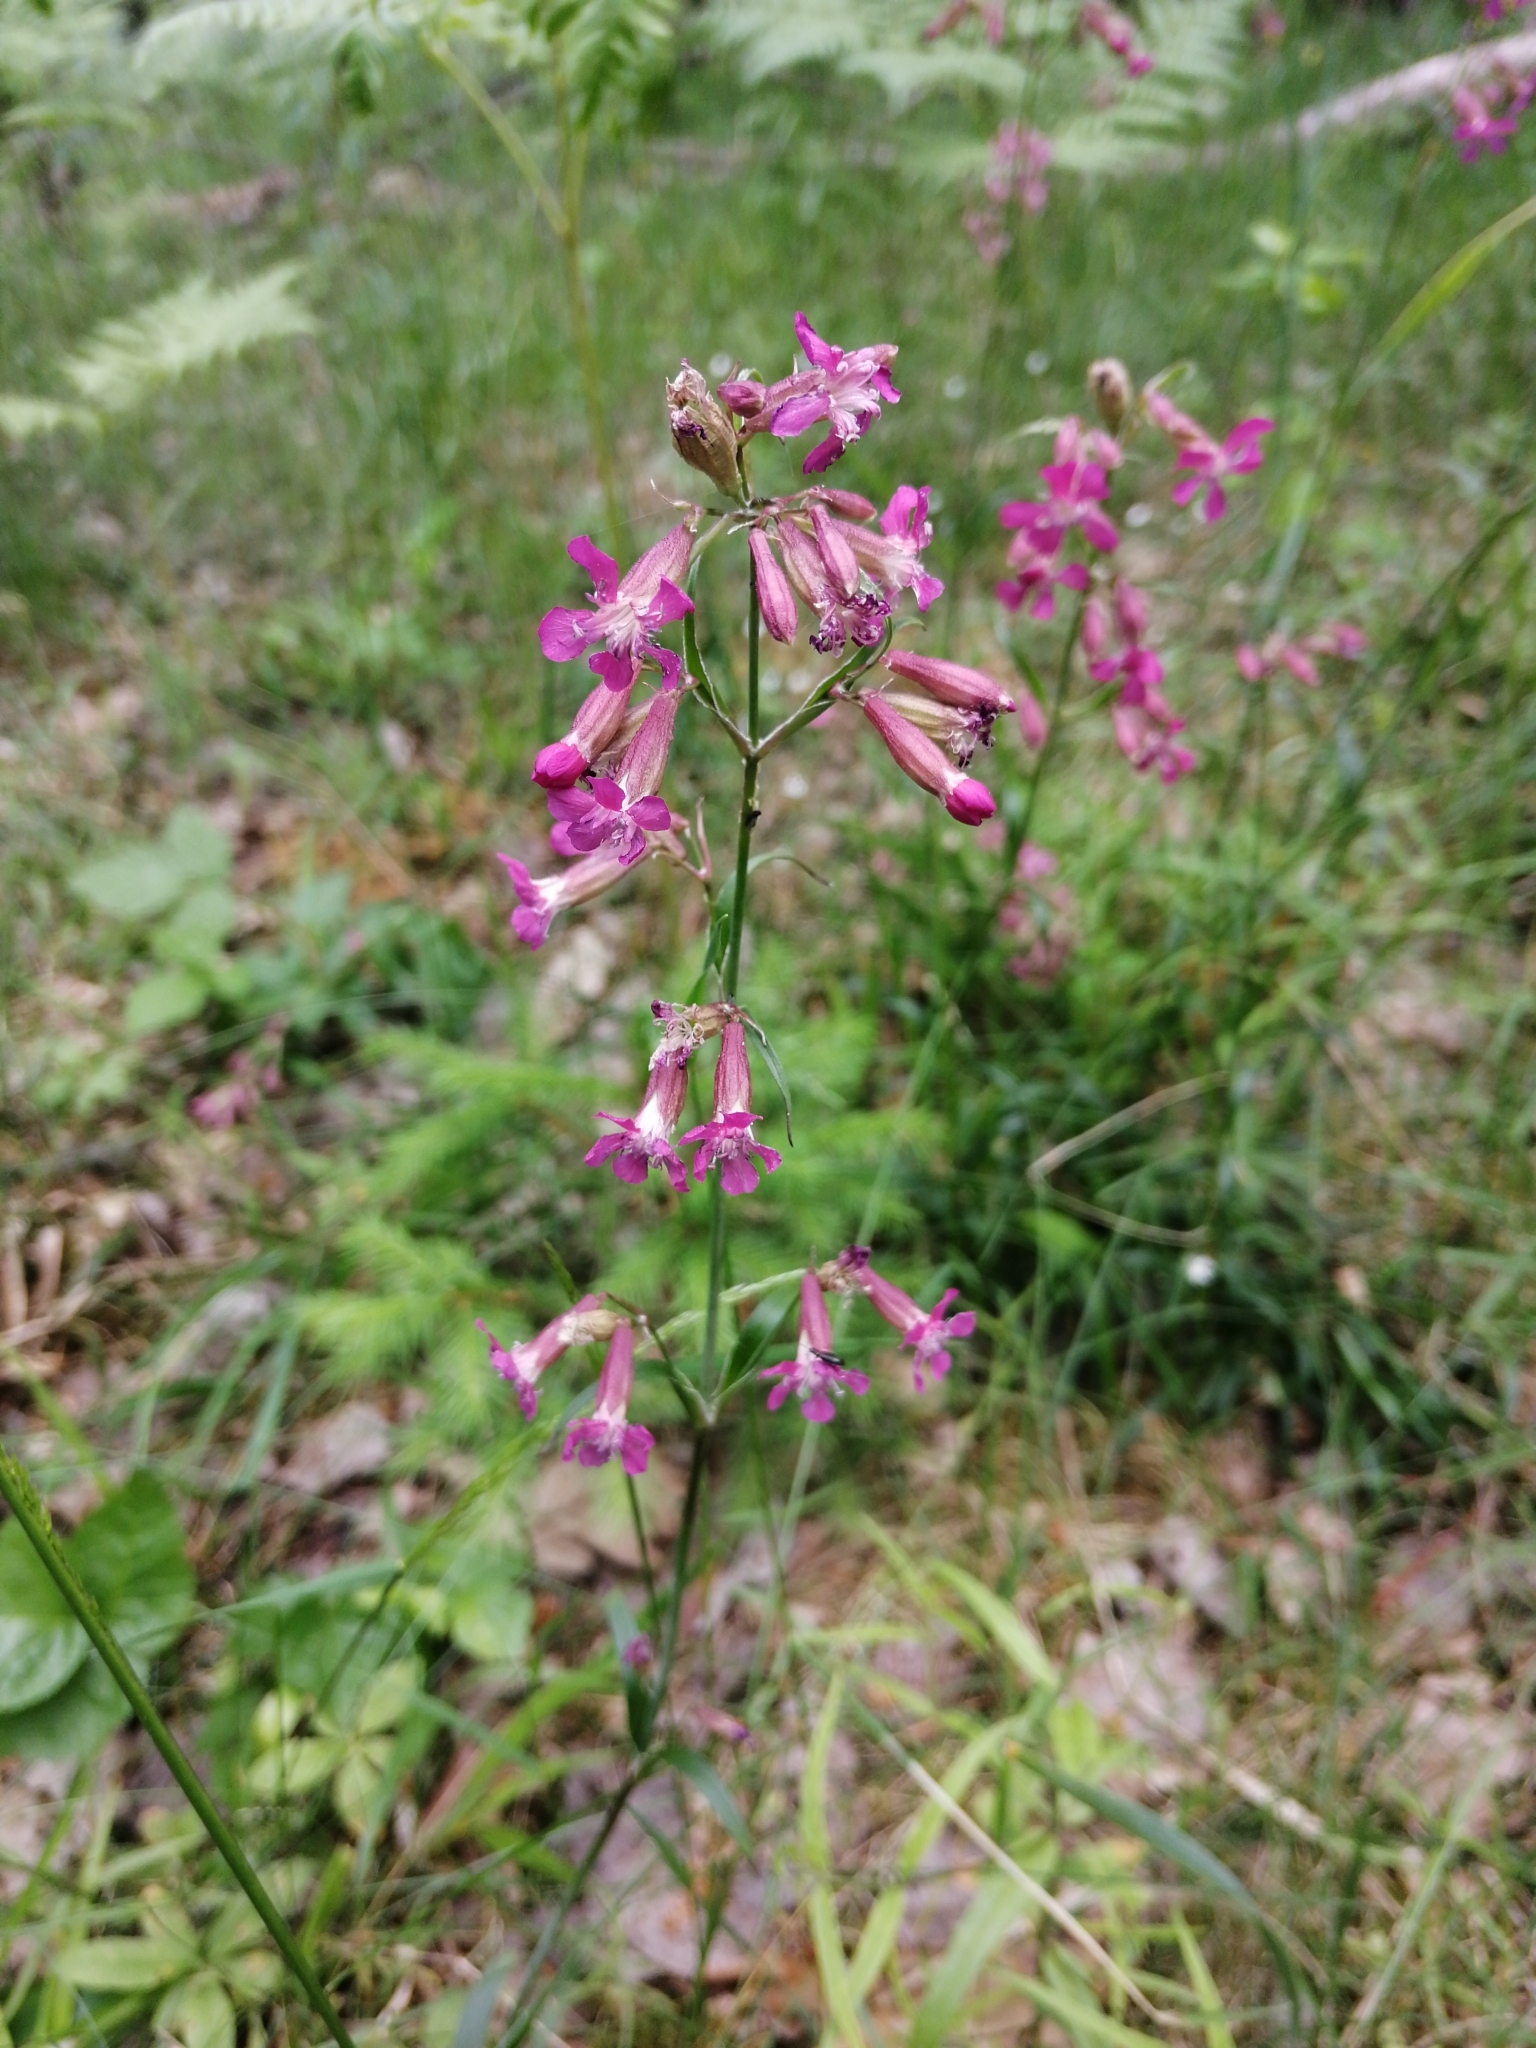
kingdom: Plantae
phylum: Tracheophyta
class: Magnoliopsida
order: Caryophyllales
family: Caryophyllaceae
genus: Viscaria
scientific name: Viscaria vulgaris
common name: Clammy campion
